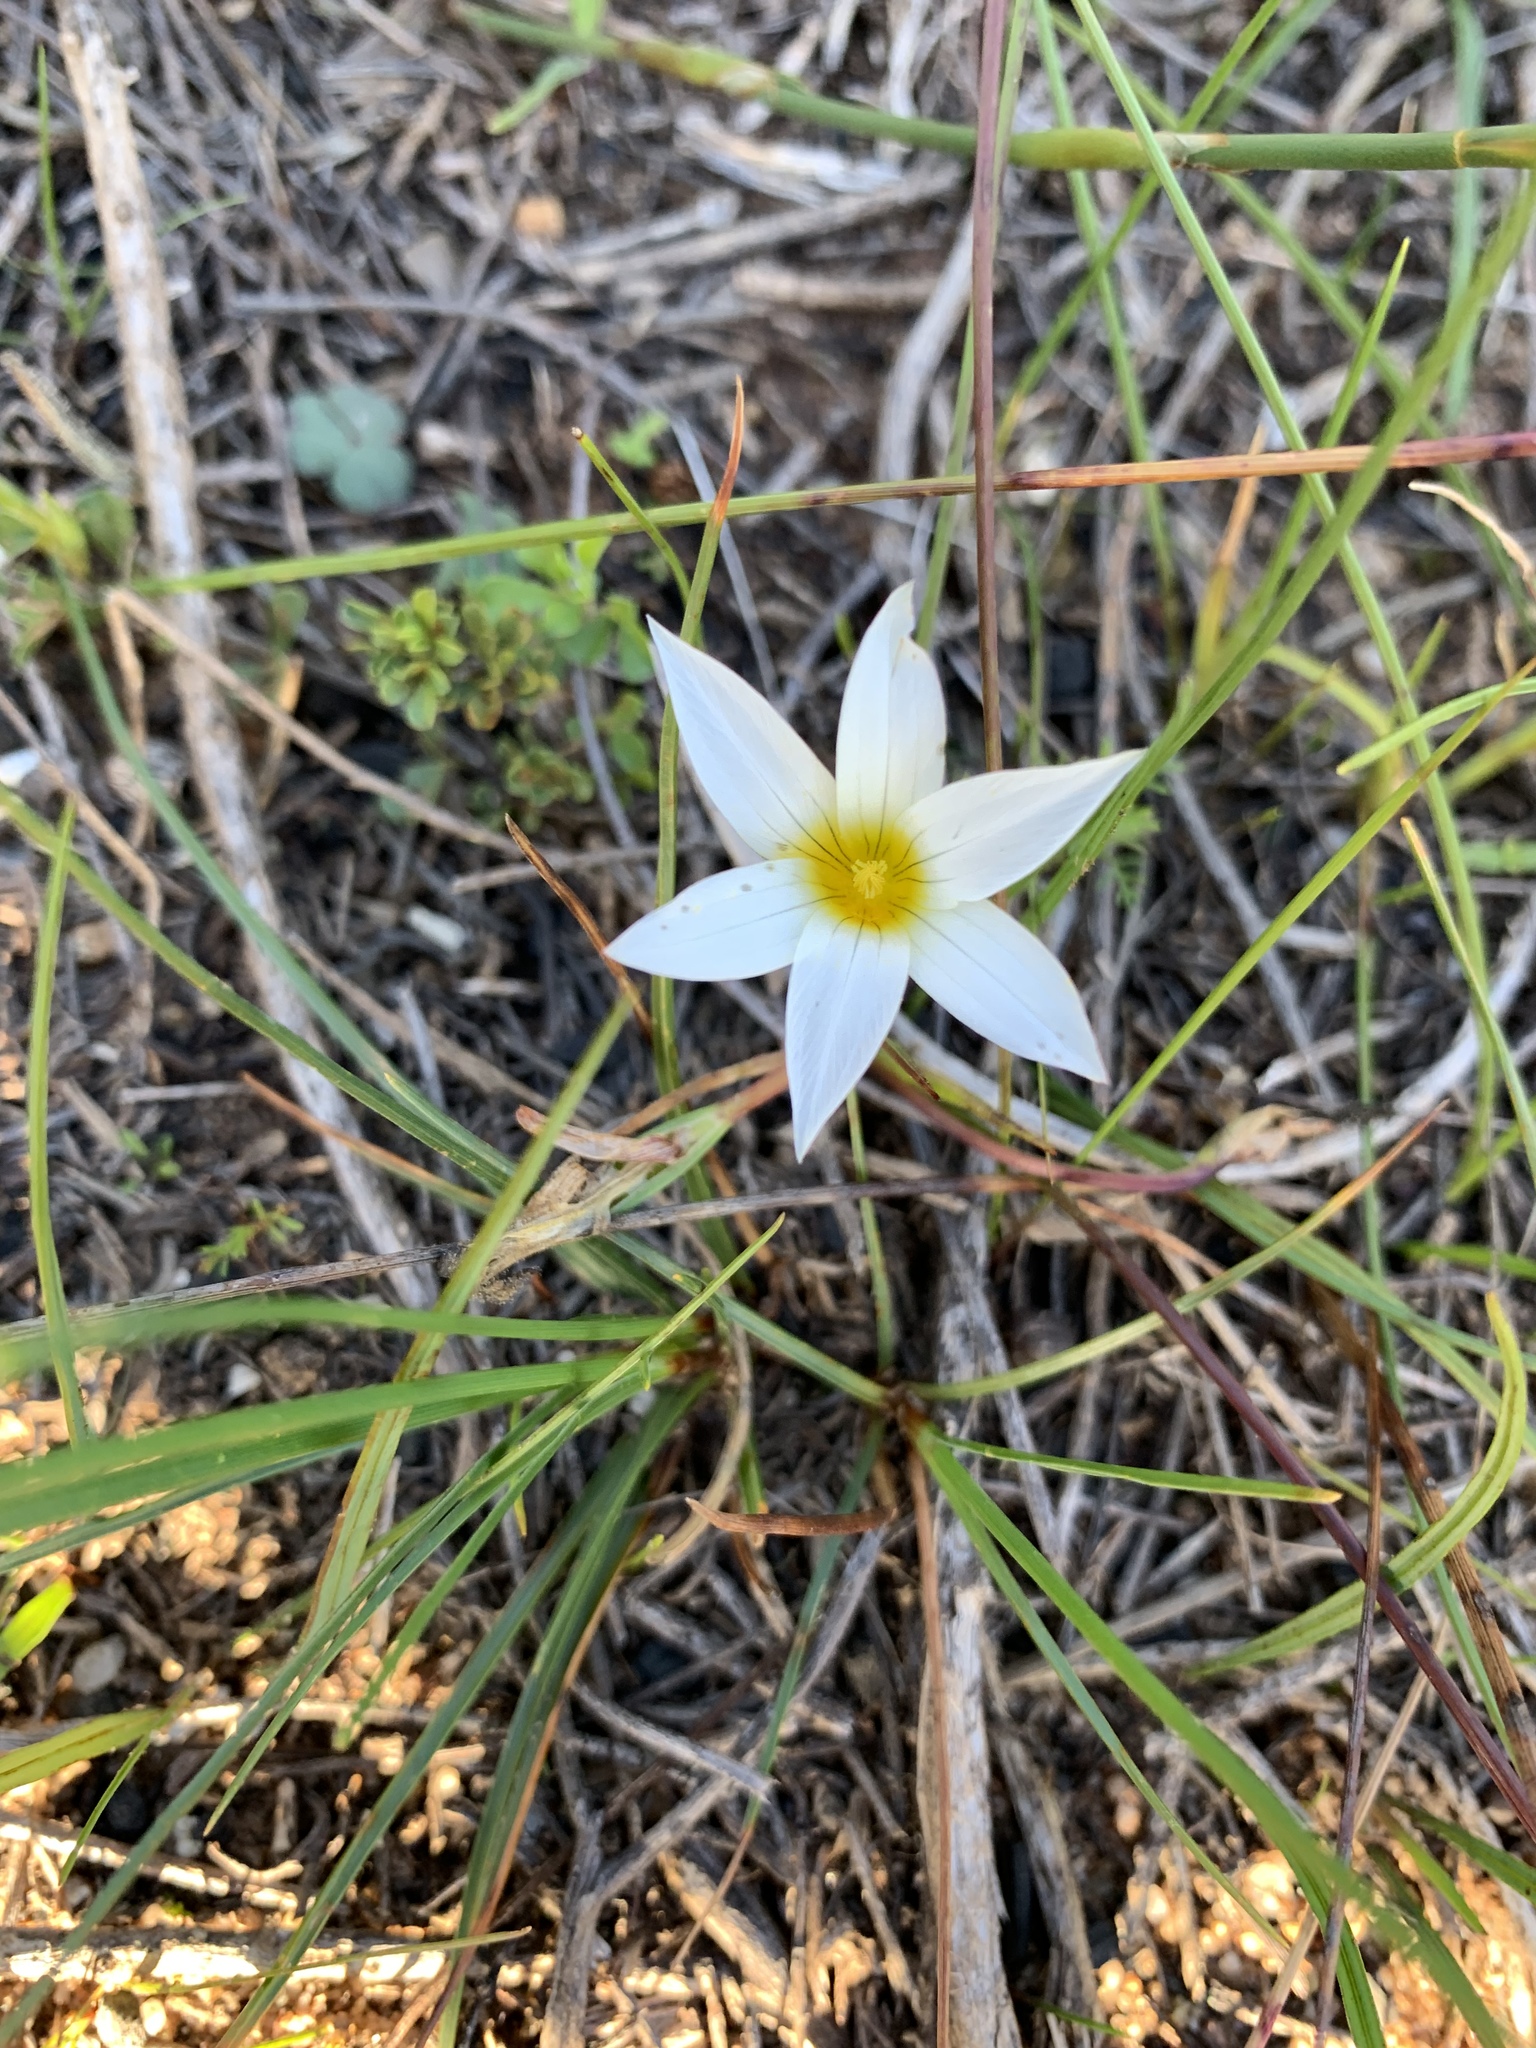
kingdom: Plantae
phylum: Tracheophyta
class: Liliopsida
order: Asparagales
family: Iridaceae
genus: Romulea
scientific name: Romulea flava
